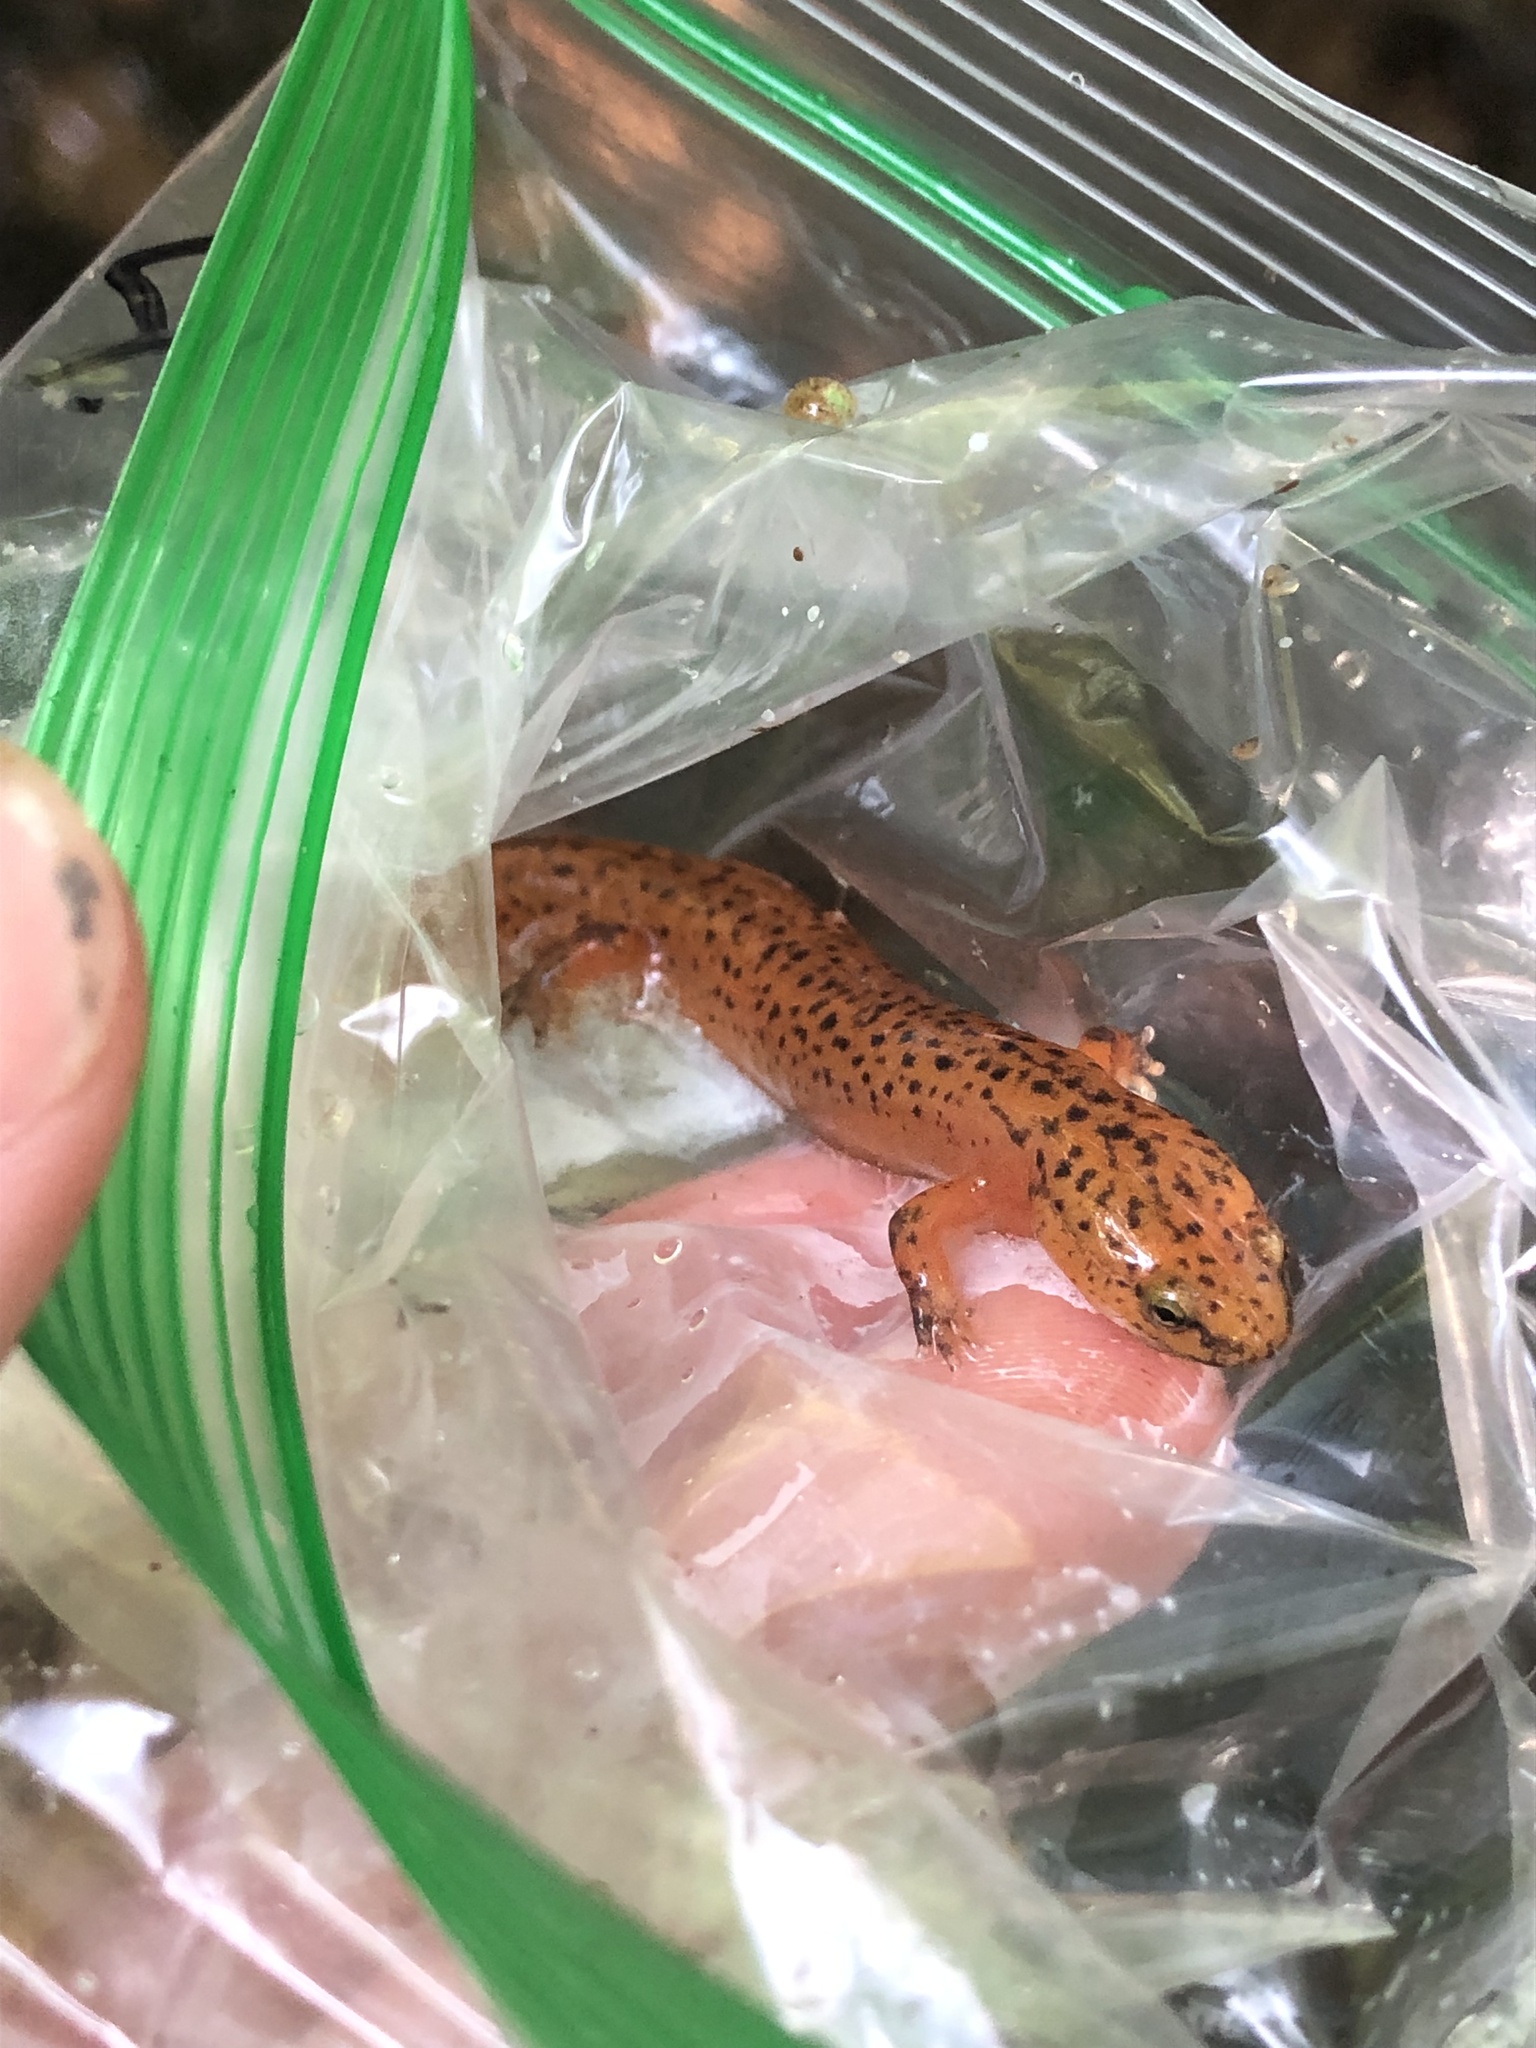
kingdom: Animalia
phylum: Chordata
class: Amphibia
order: Caudata
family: Plethodontidae
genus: Pseudotriton
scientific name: Pseudotriton ruber
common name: Red salamander
